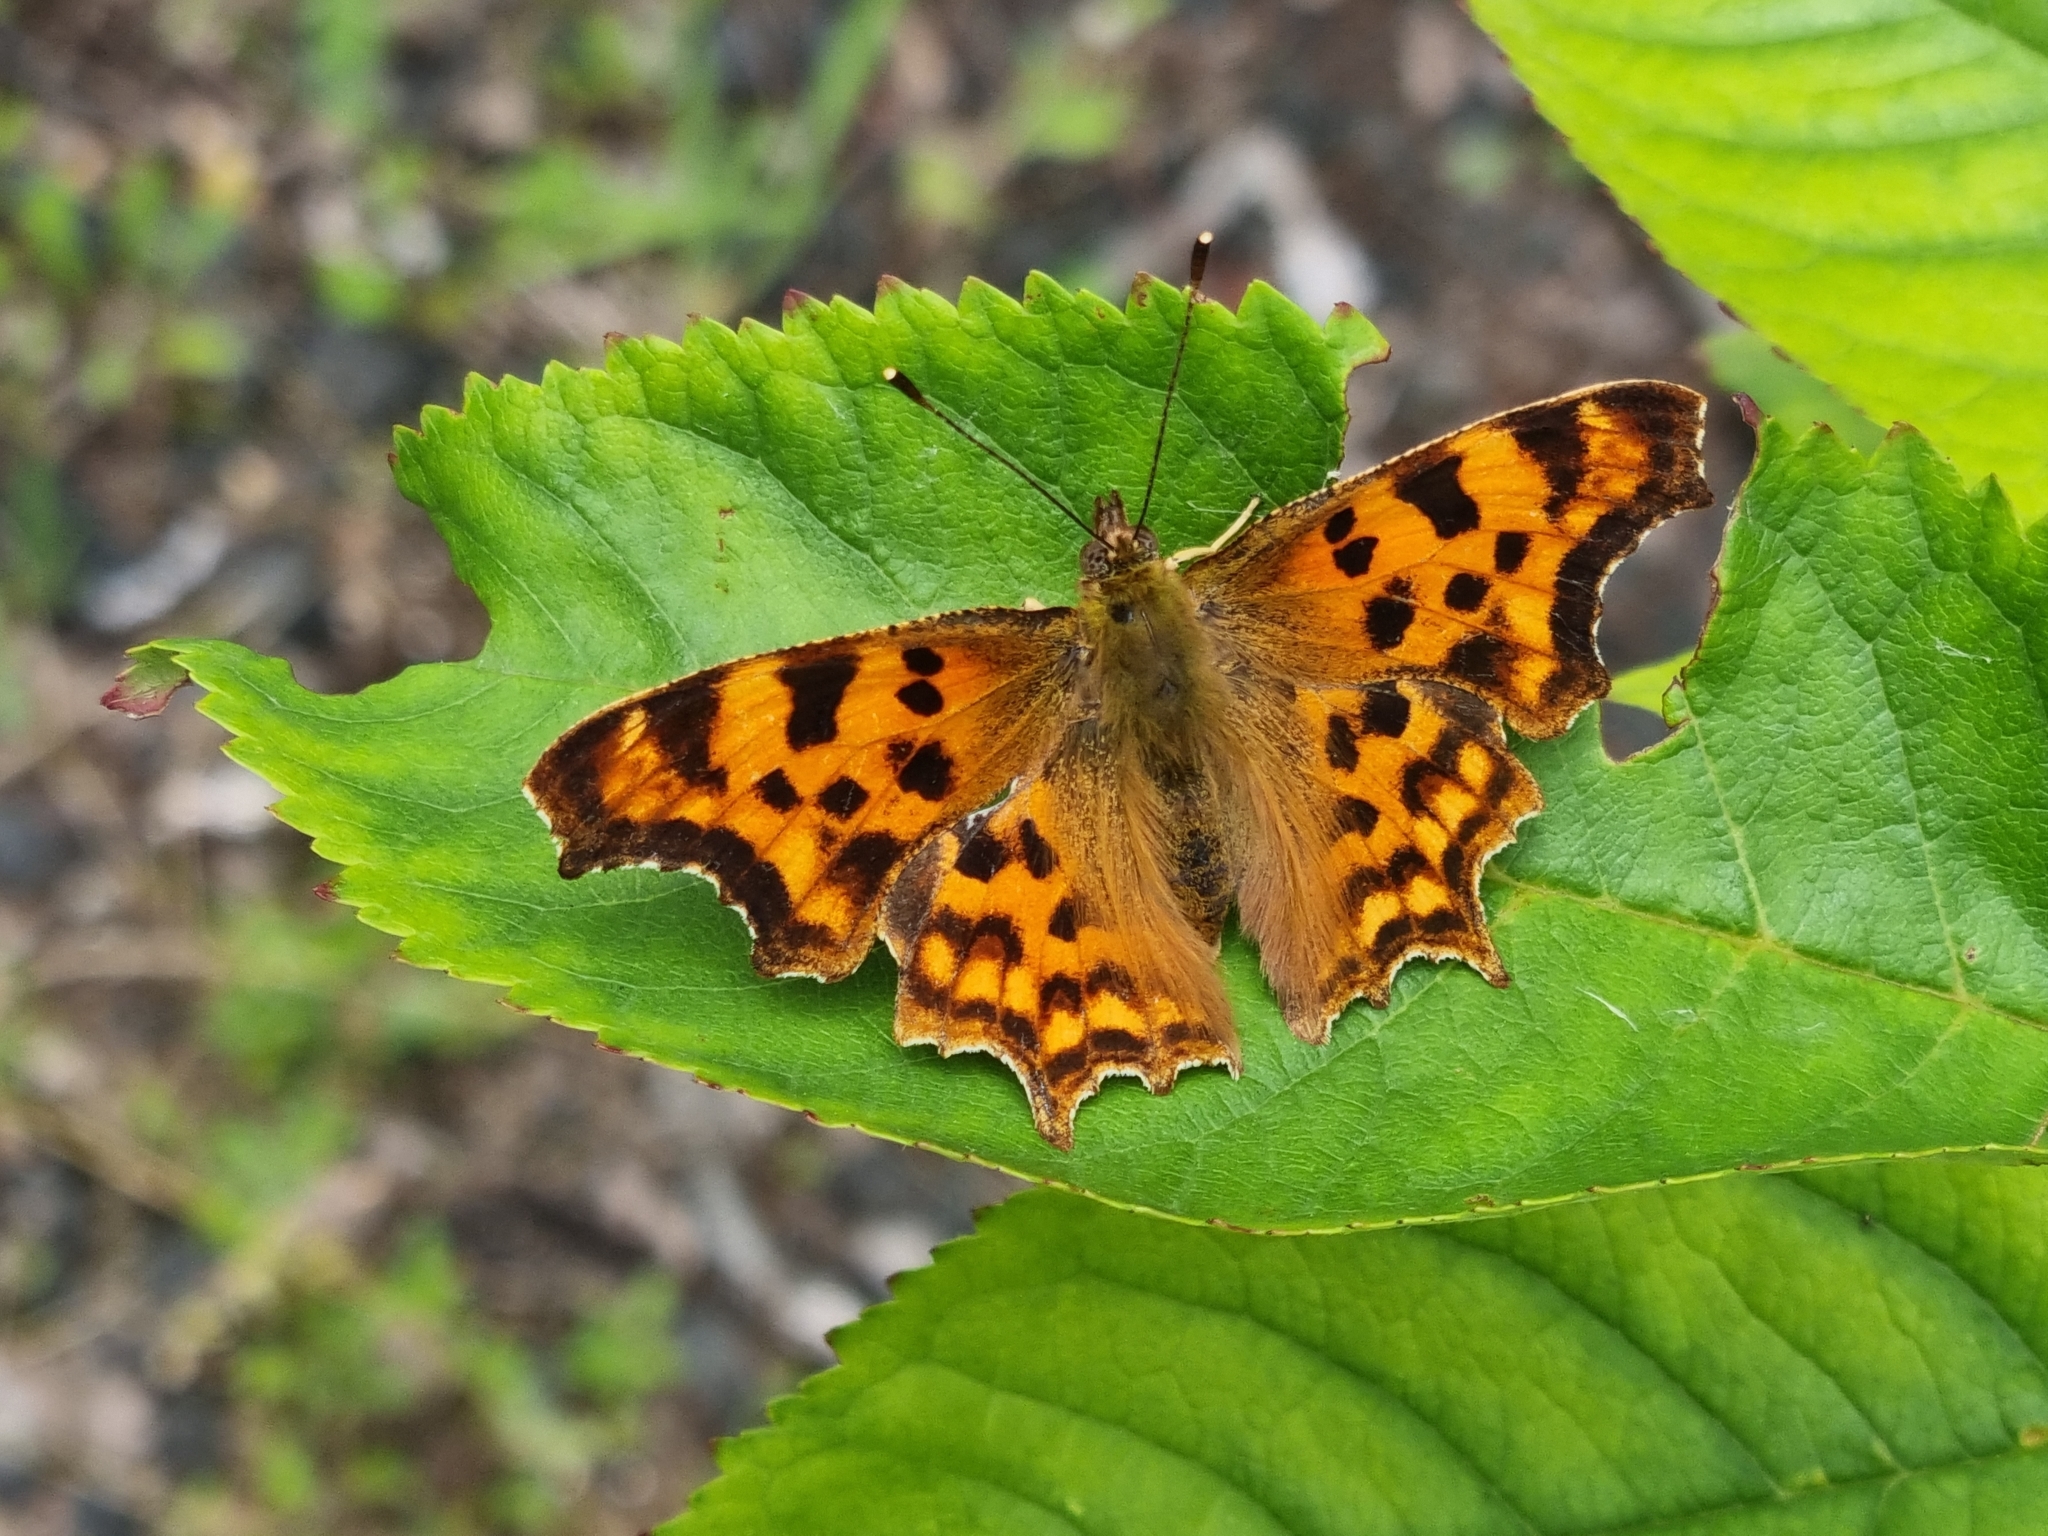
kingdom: Animalia
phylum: Arthropoda
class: Insecta
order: Lepidoptera
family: Nymphalidae
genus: Polygonia
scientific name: Polygonia c-album
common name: Comma
